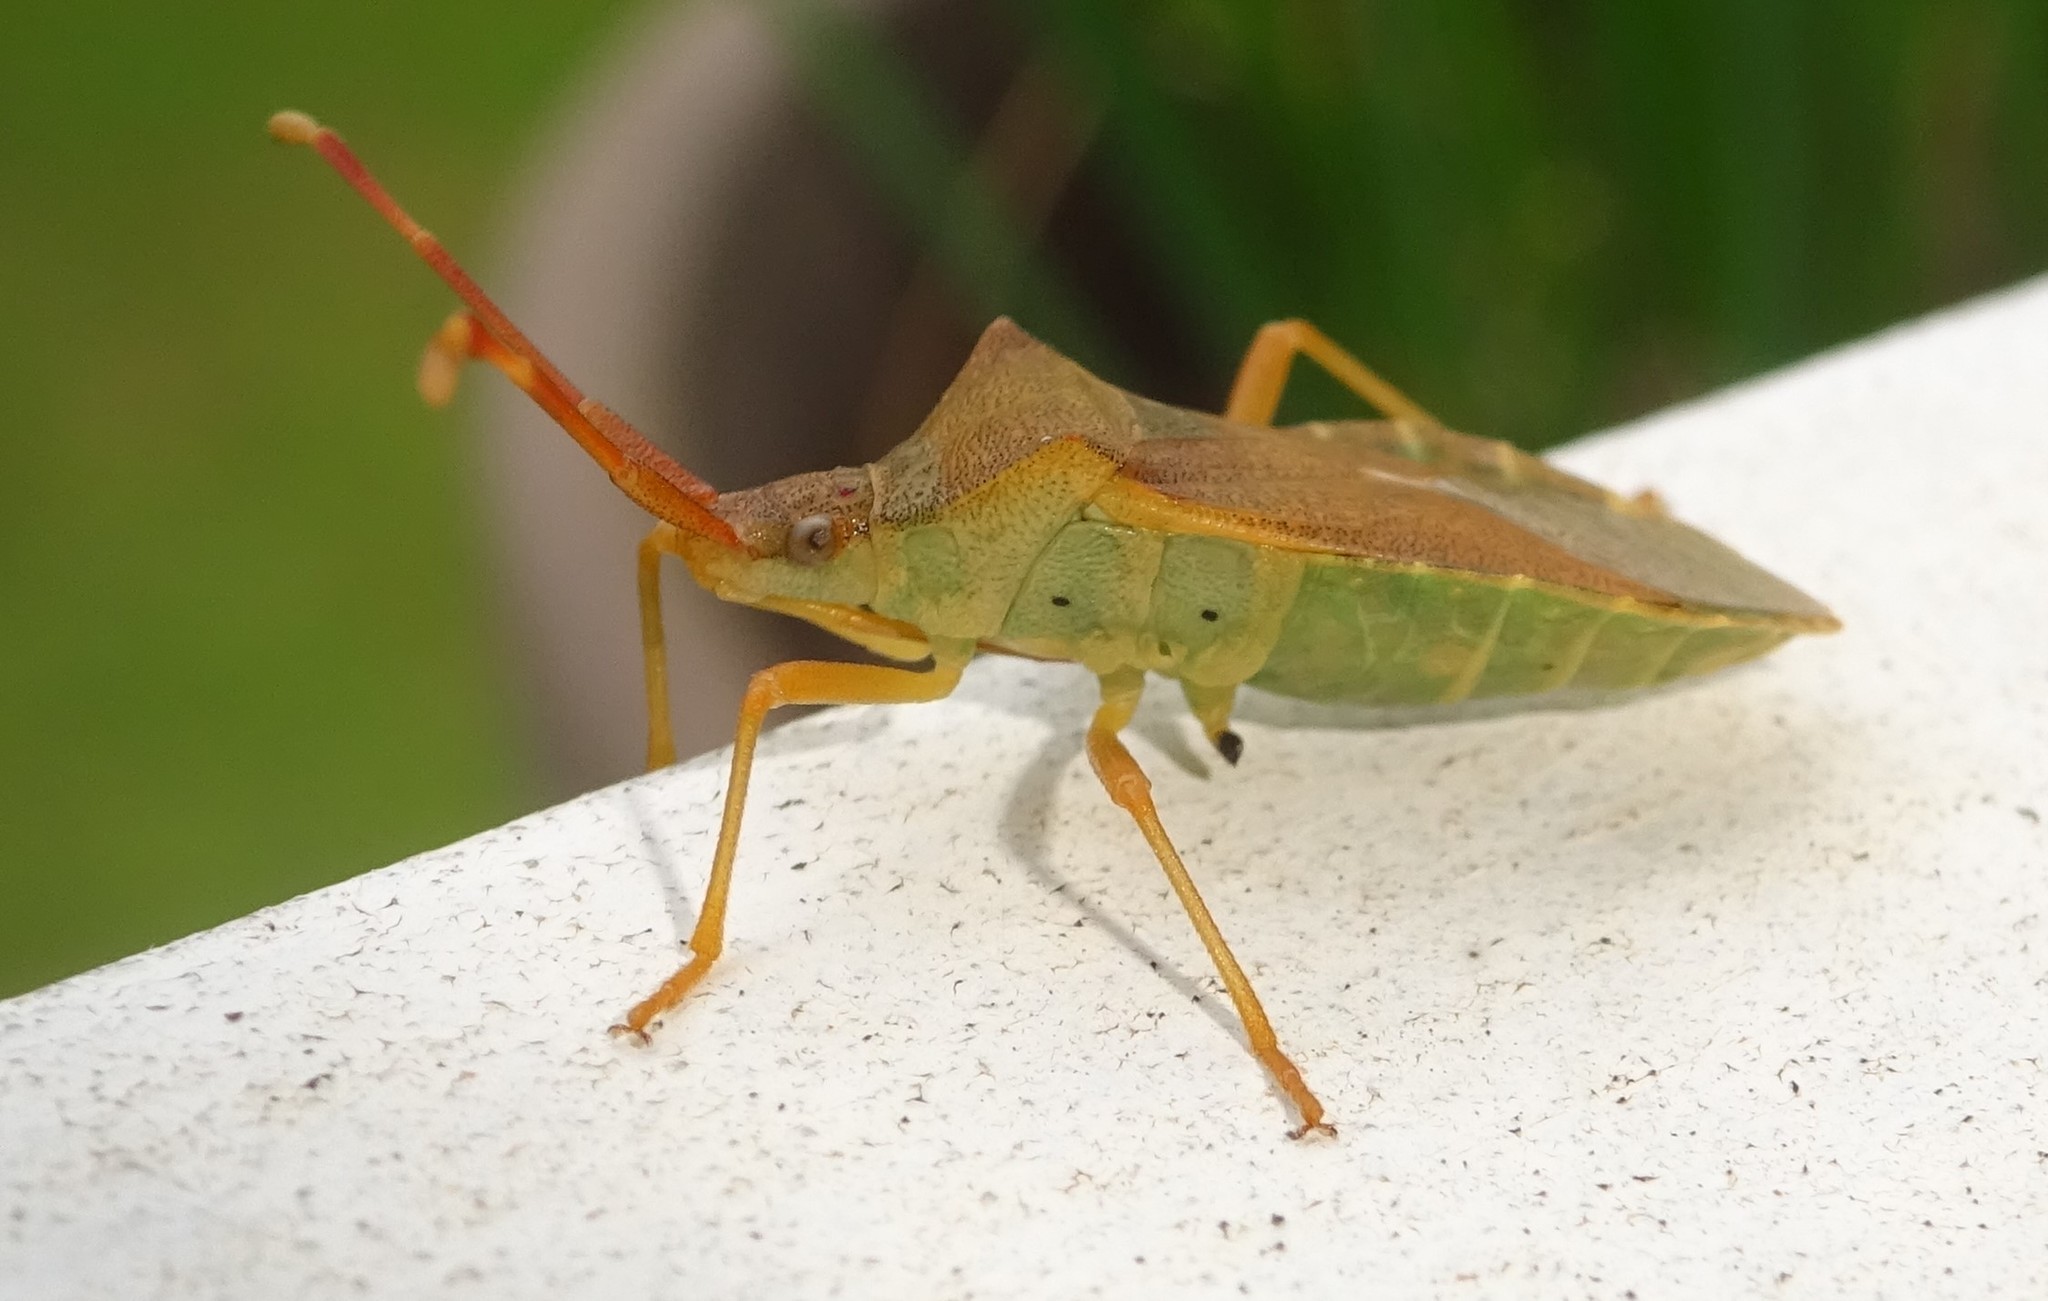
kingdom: Animalia
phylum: Arthropoda
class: Insecta
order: Hemiptera
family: Coreidae
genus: Gonocerus
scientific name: Gonocerus acuteangulatus
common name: Box bug
